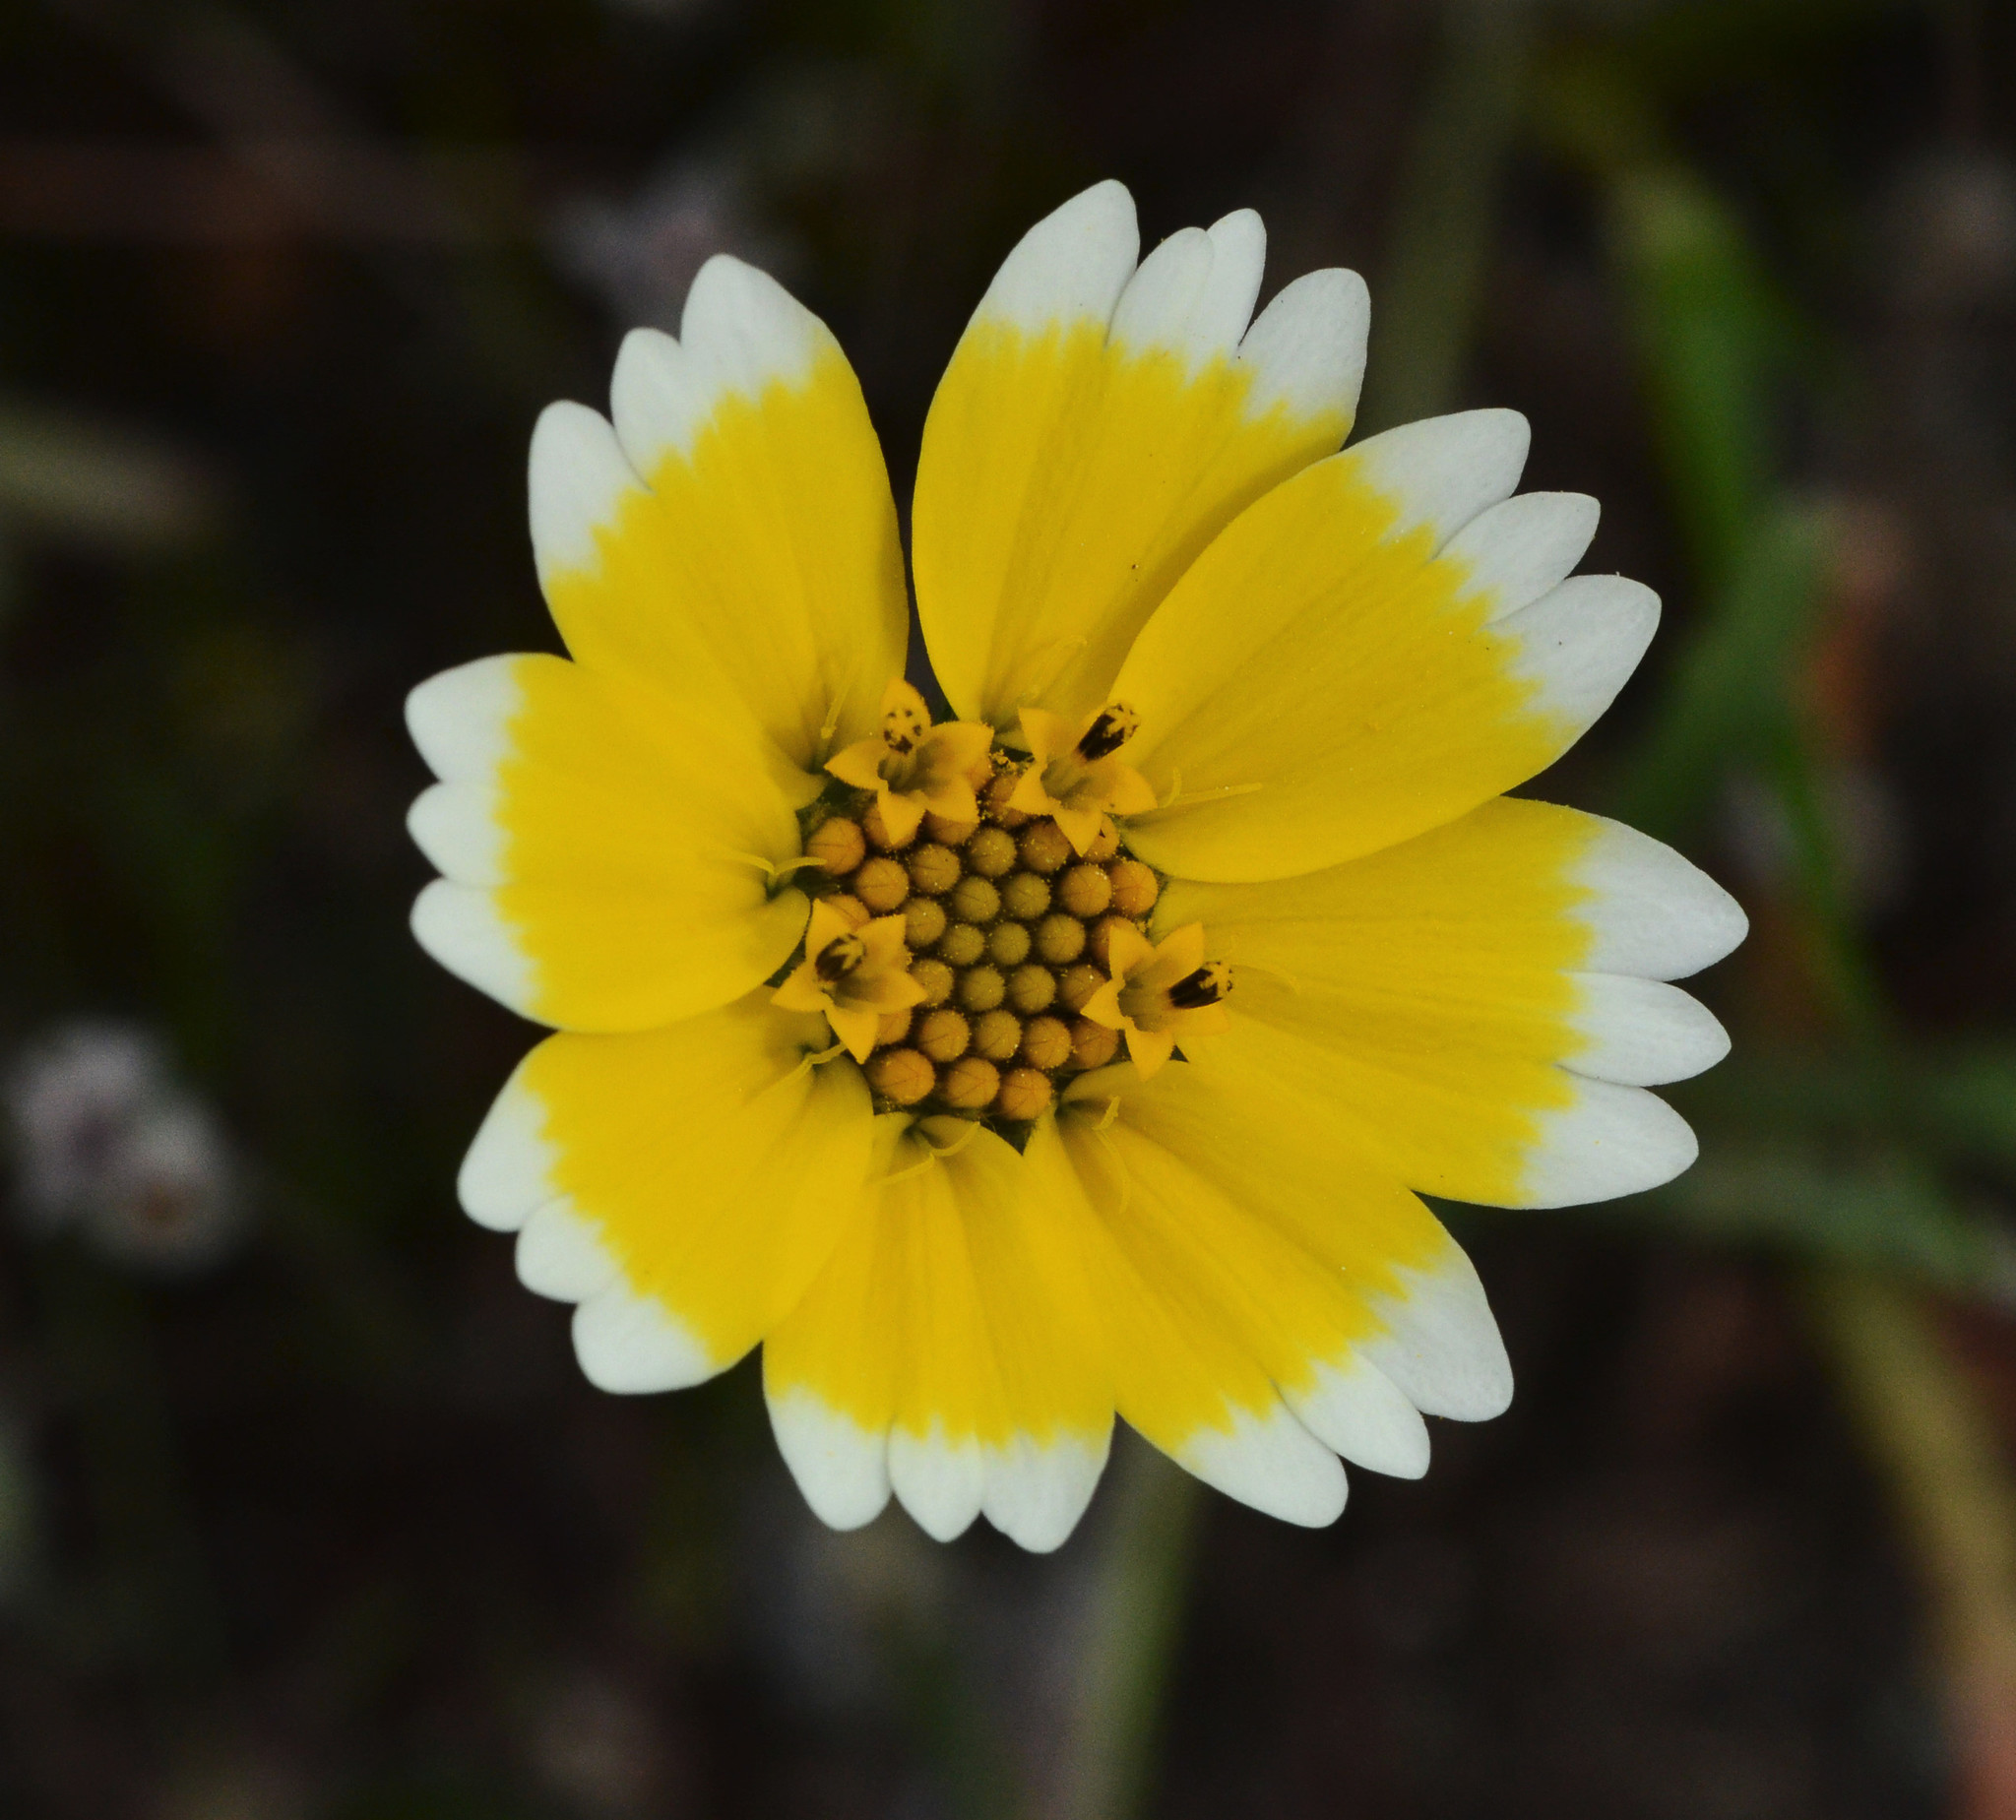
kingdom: Plantae
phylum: Tracheophyta
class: Magnoliopsida
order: Asterales
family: Asteraceae
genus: Layia
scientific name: Layia platyglossa
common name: Tidy-tips
